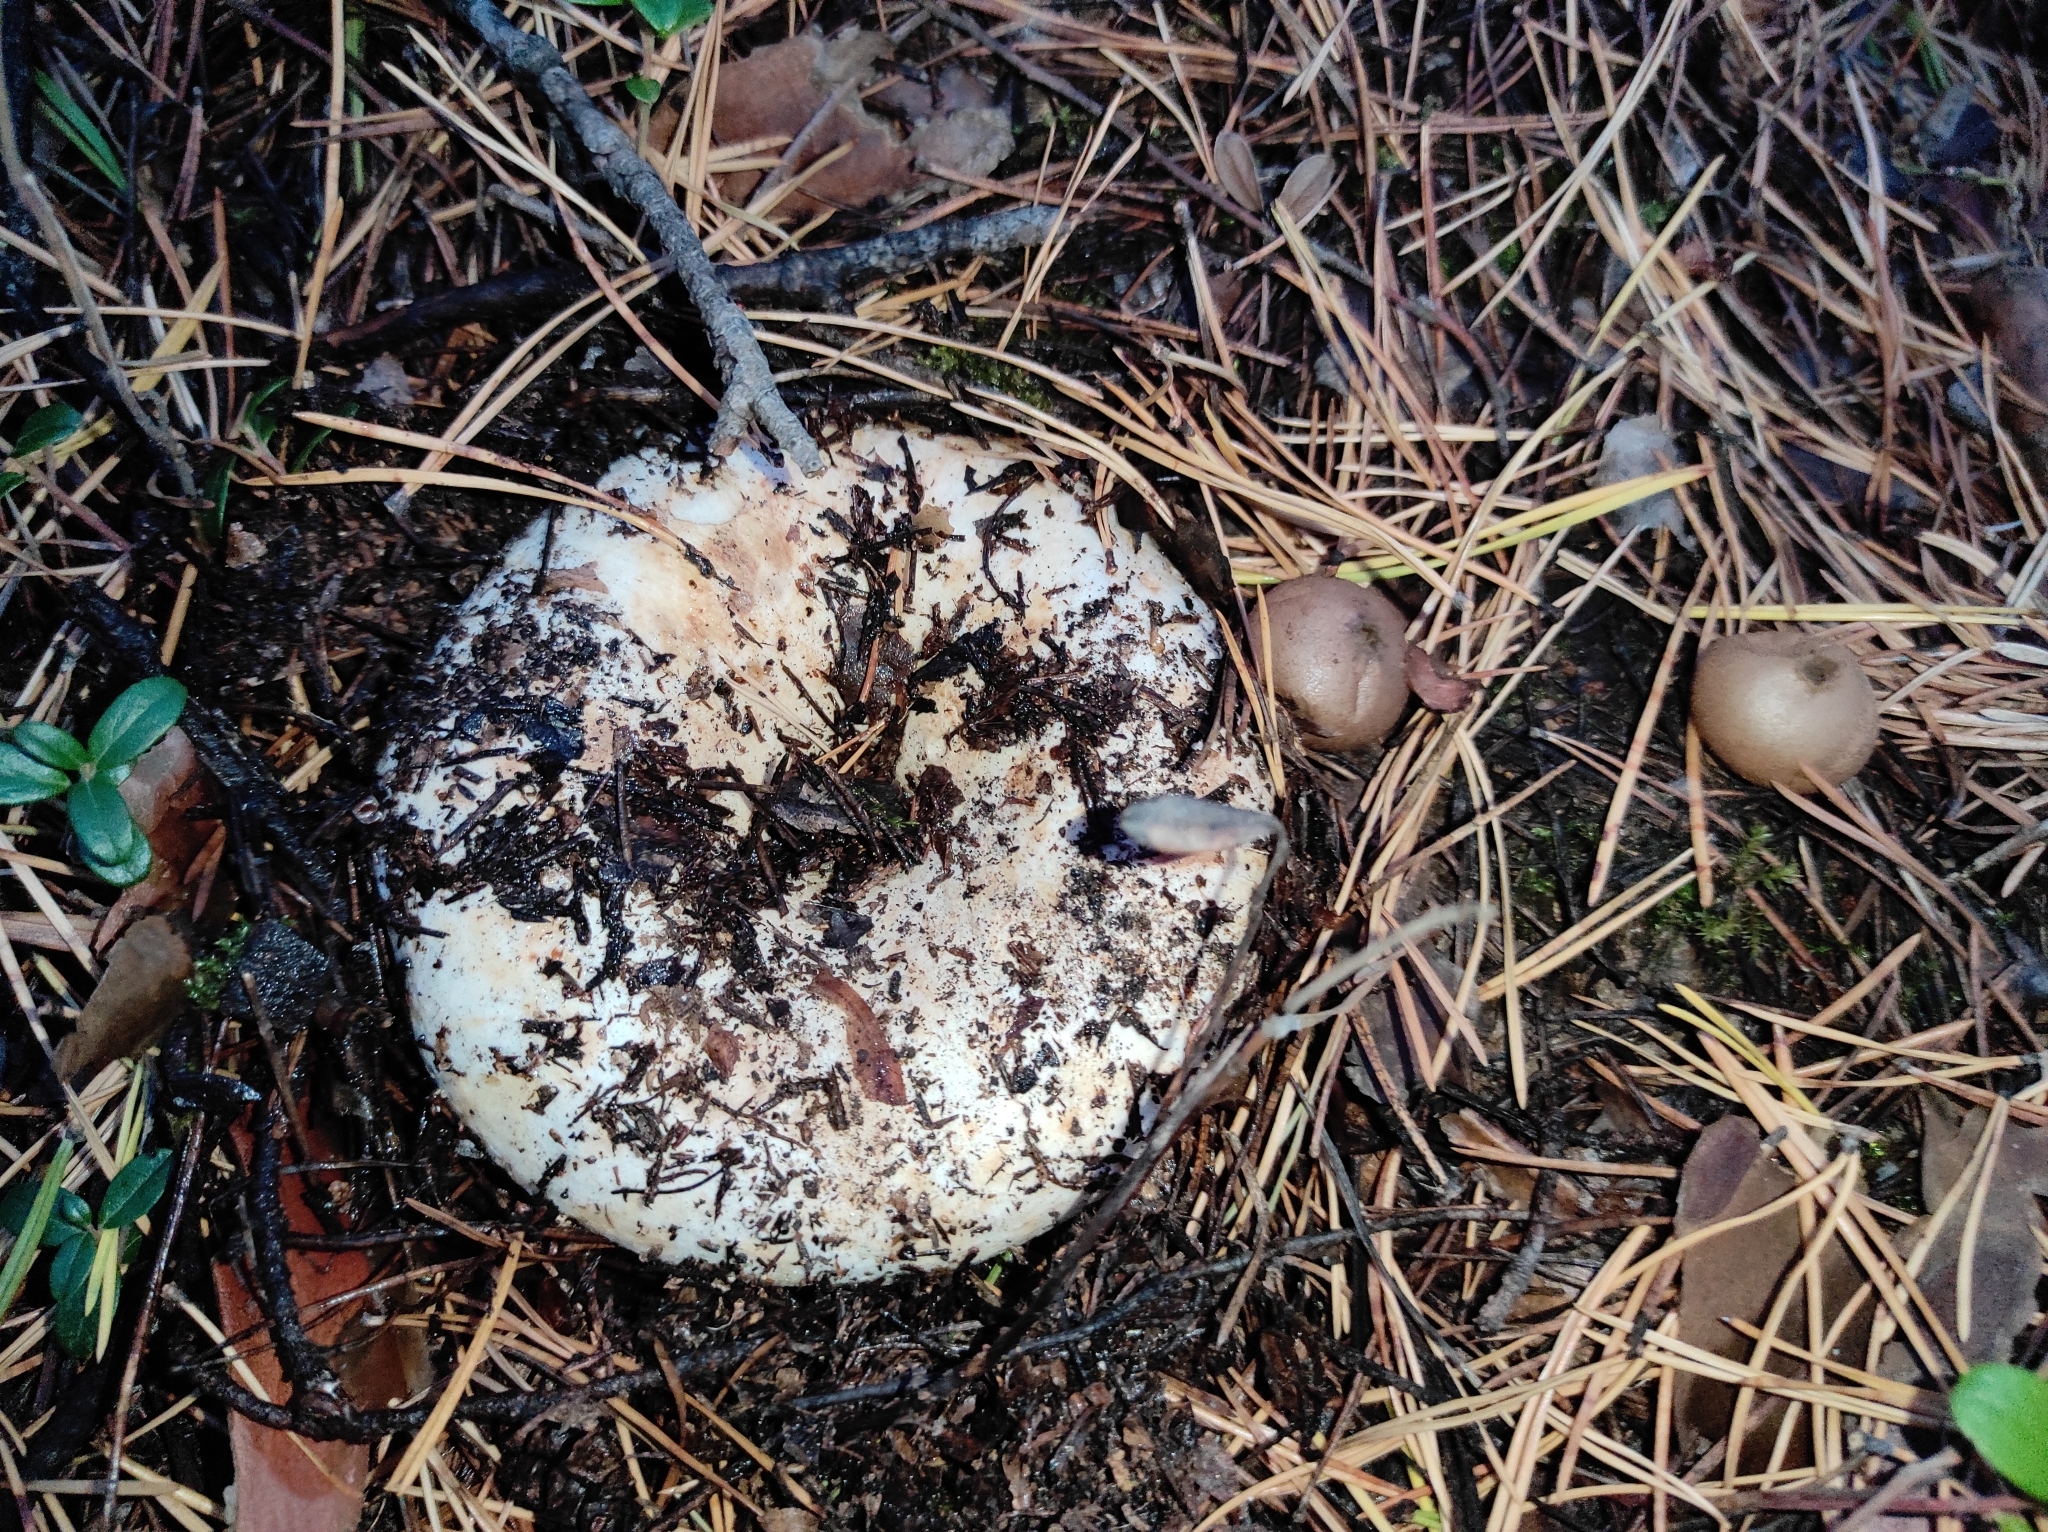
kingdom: Fungi
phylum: Basidiomycota
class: Agaricomycetes
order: Russulales
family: Russulaceae
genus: Russula
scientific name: Russula delica
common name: Milk white brittlegill
